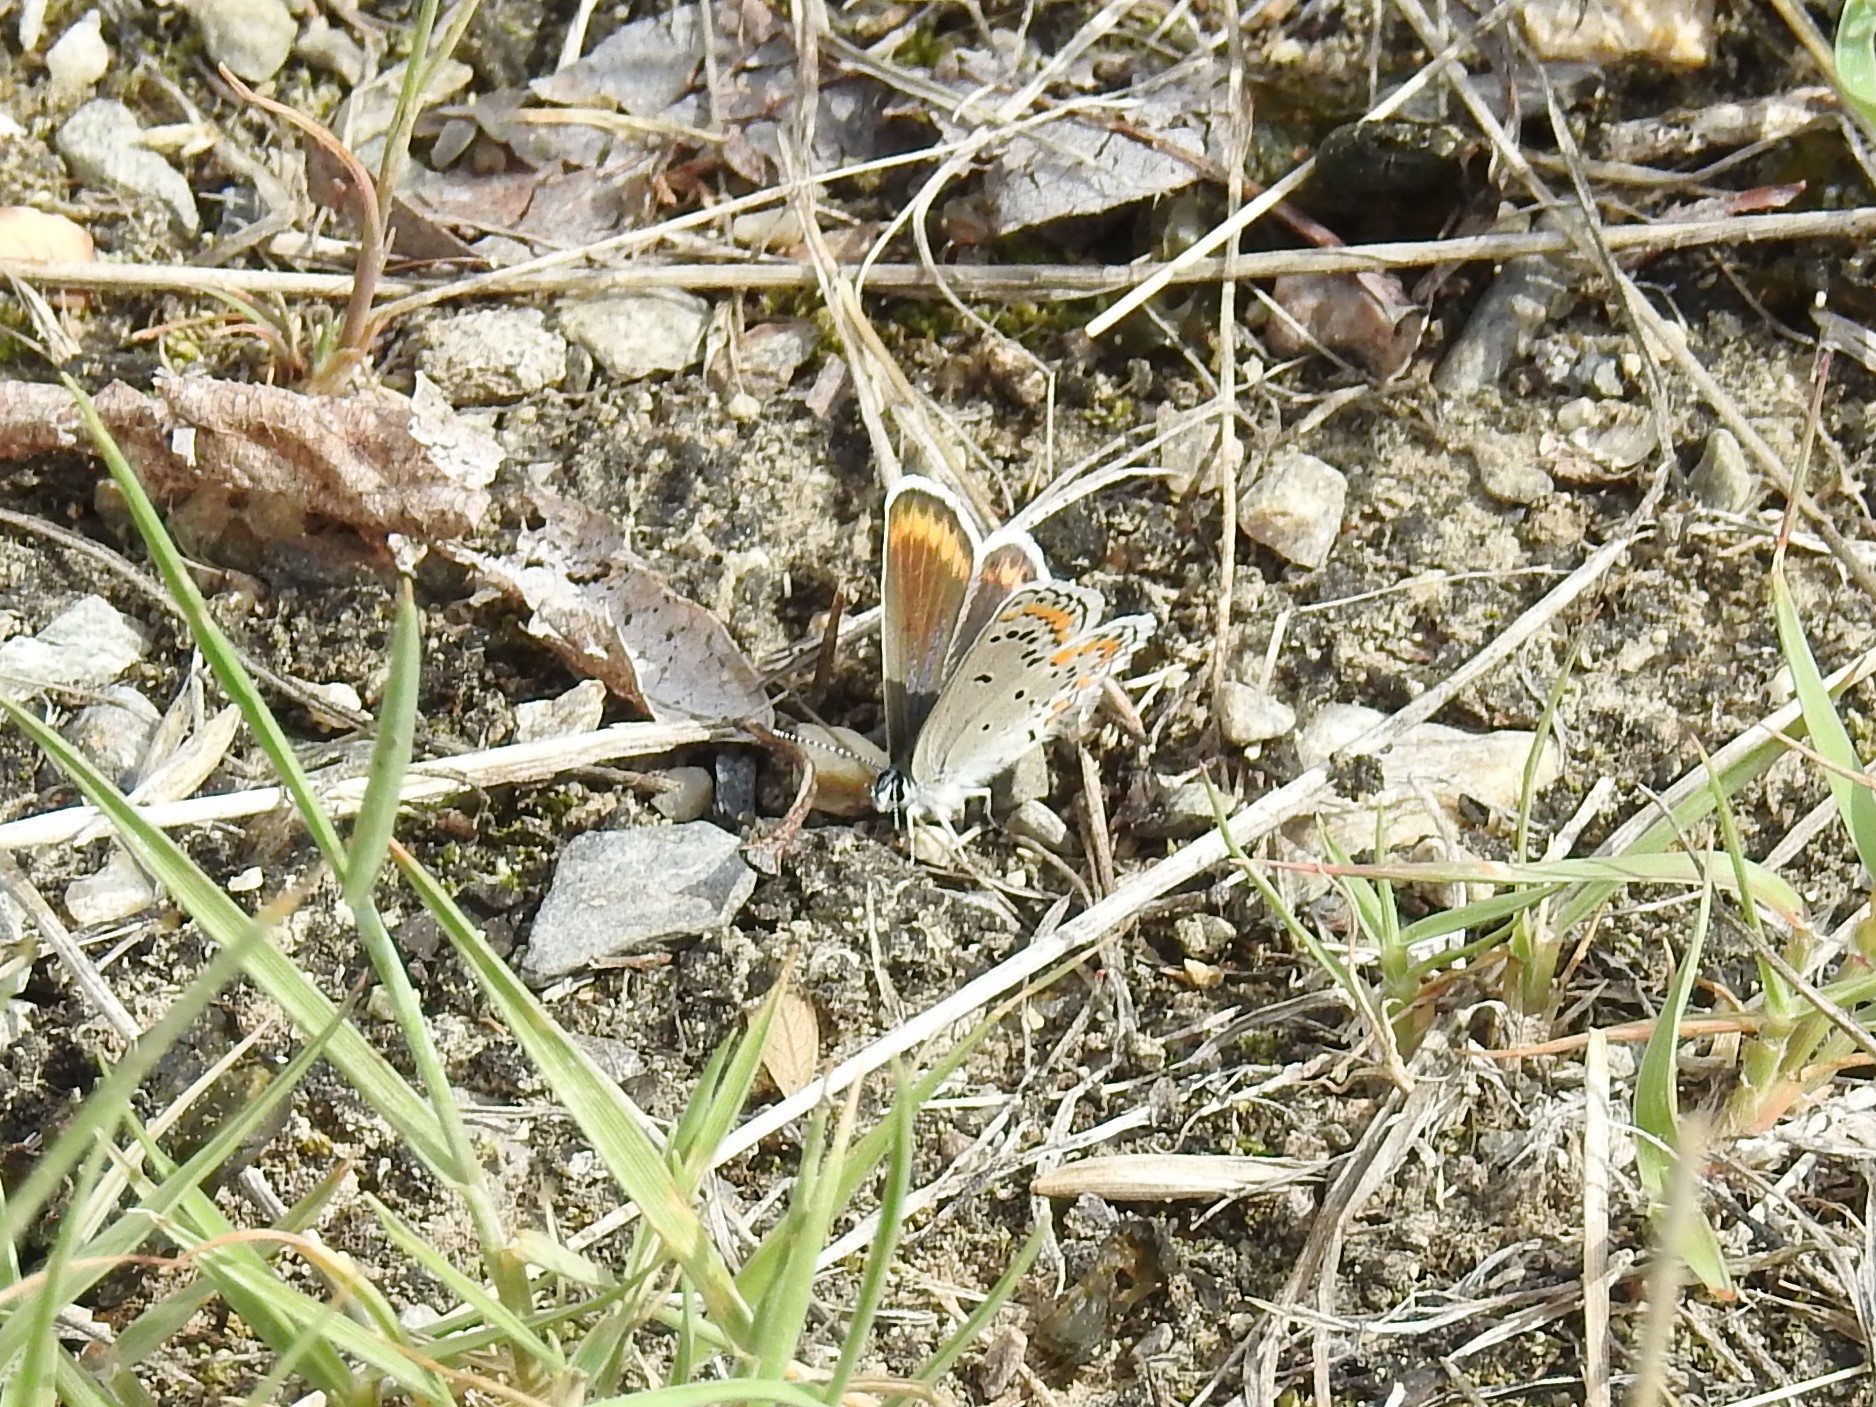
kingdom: Animalia
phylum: Arthropoda
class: Insecta
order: Lepidoptera
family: Lycaenidae
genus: Lycaeides
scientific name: Lycaeides melissa
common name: Melissa blue
